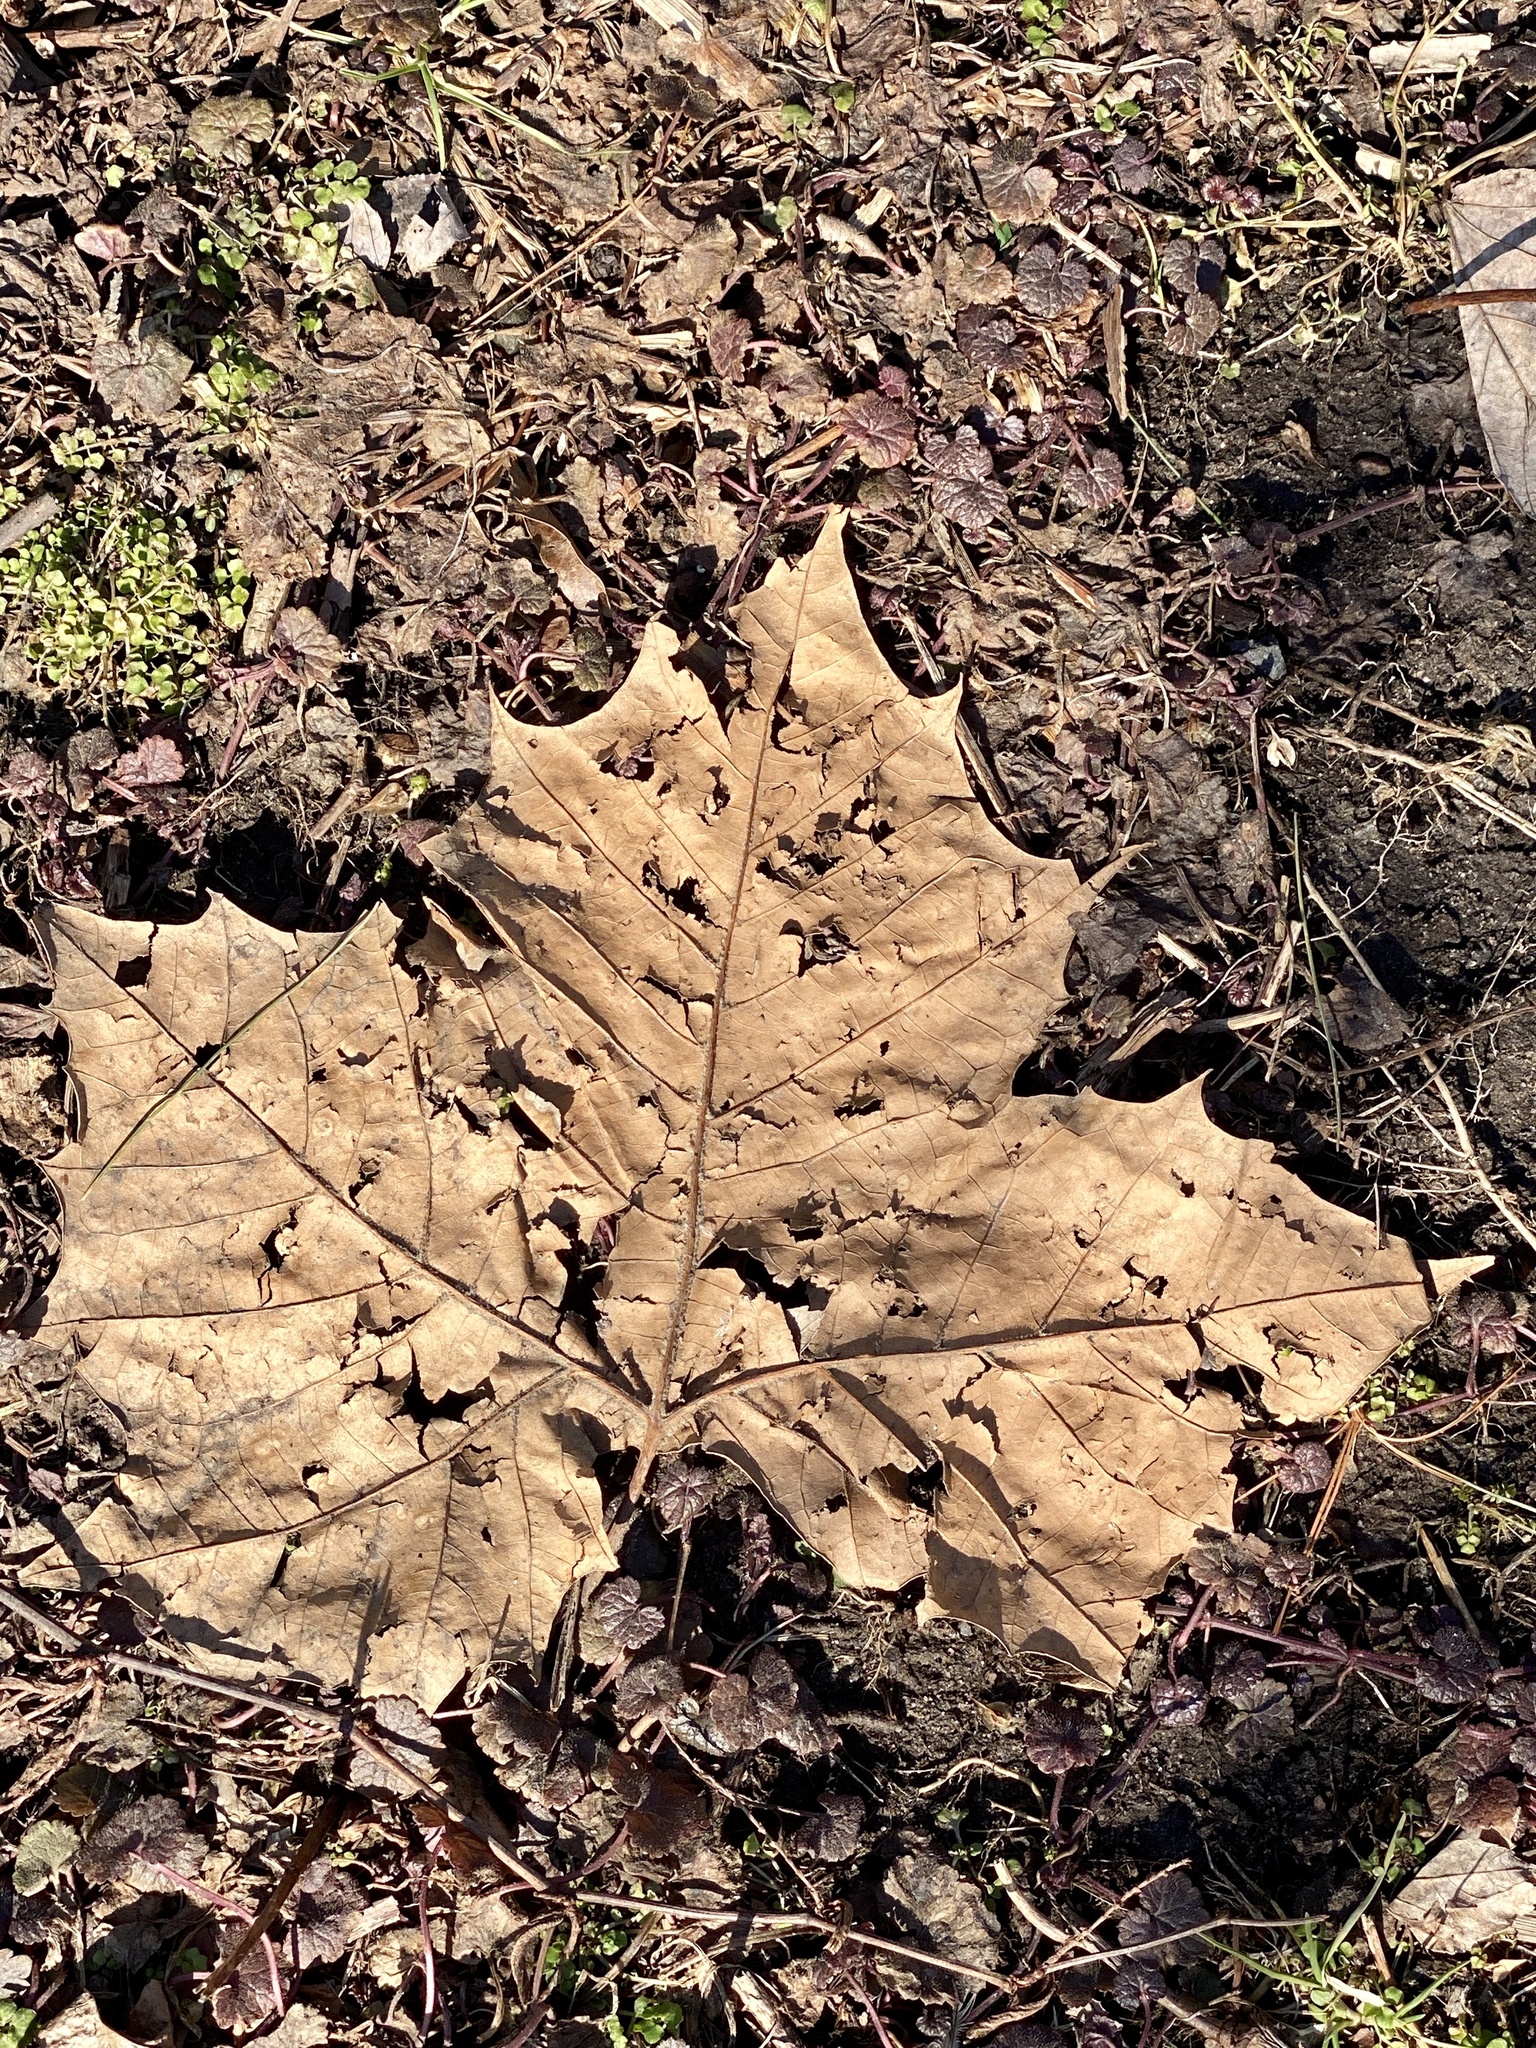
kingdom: Plantae
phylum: Tracheophyta
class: Magnoliopsida
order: Proteales
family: Platanaceae
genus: Platanus
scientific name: Platanus occidentalis
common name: American sycamore
